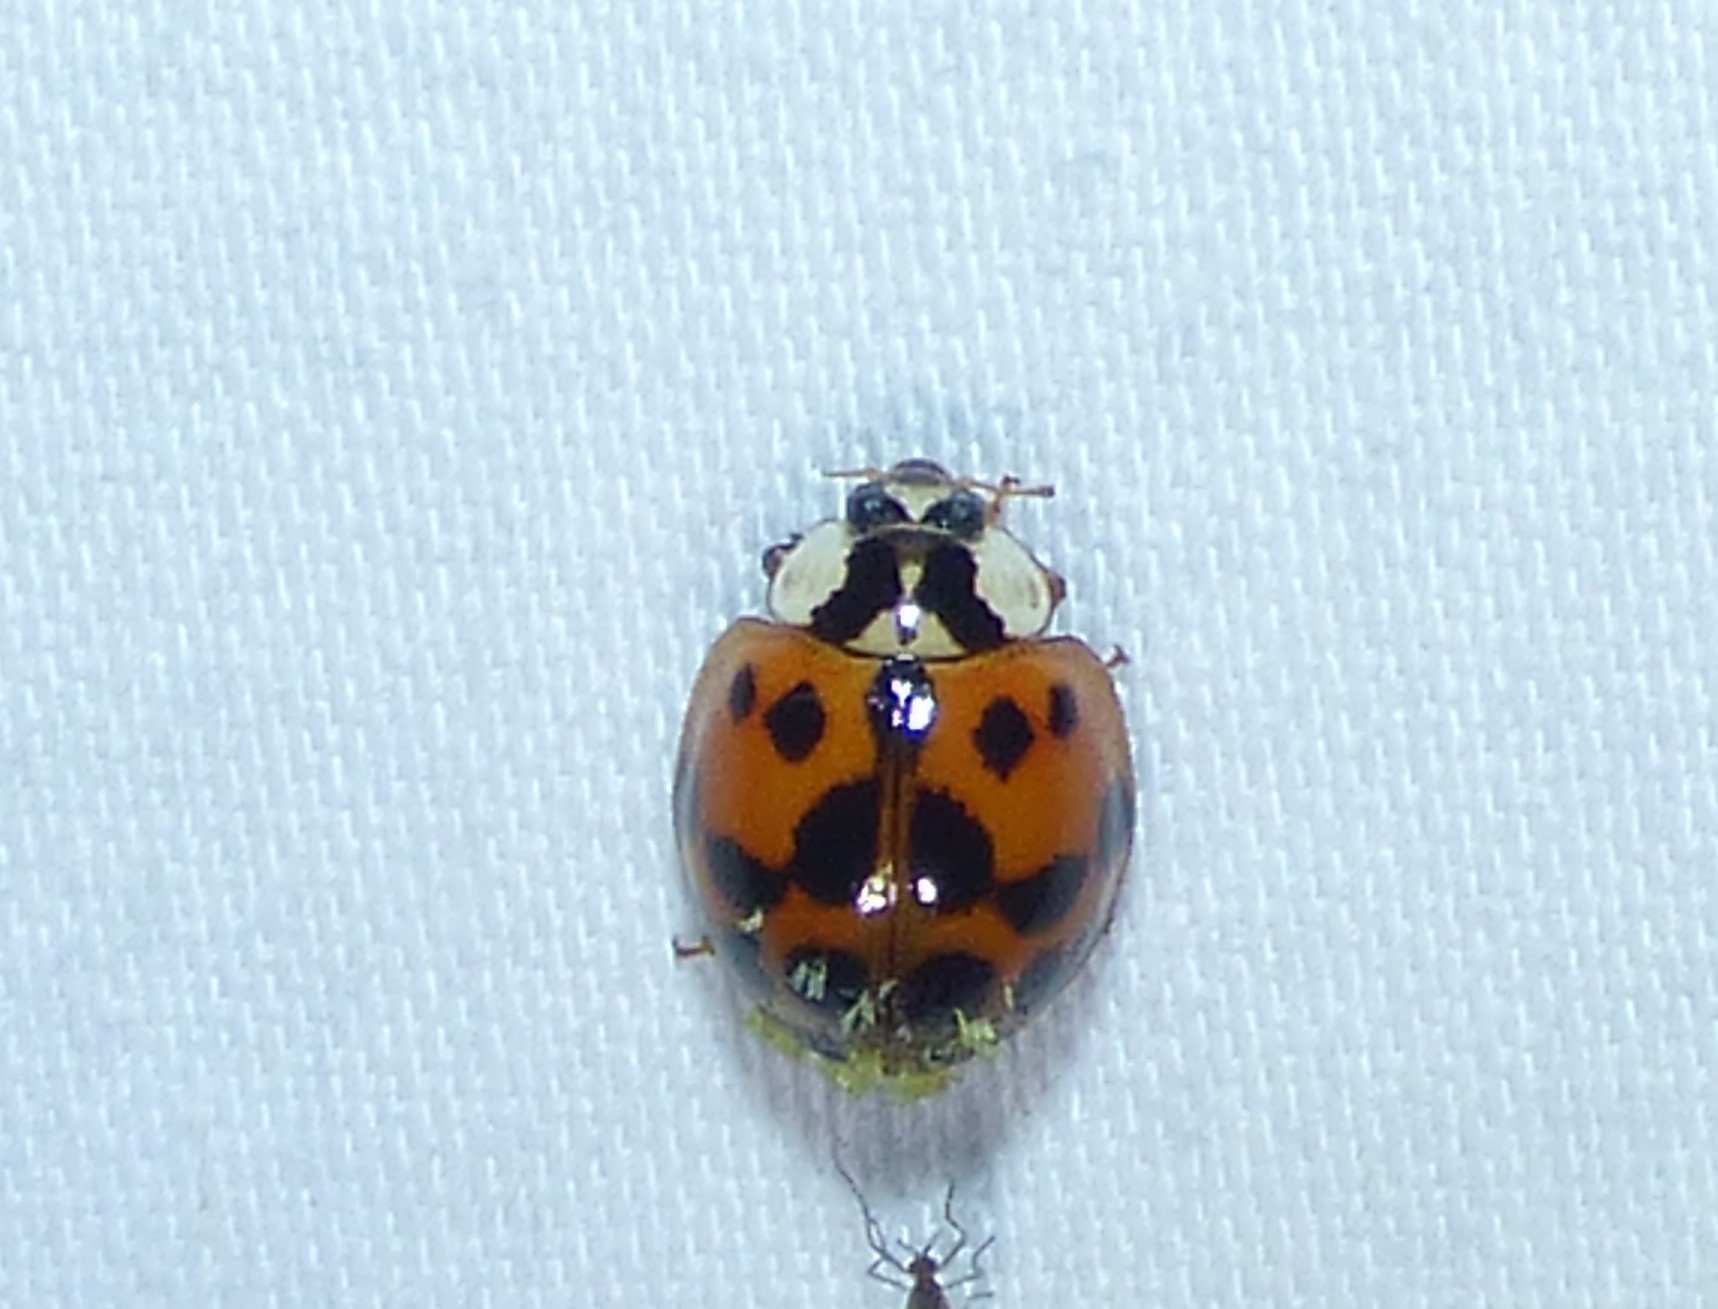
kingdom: Animalia
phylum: Arthropoda
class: Insecta
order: Coleoptera
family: Coccinellidae
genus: Harmonia
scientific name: Harmonia axyridis
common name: Harlequin ladybird
